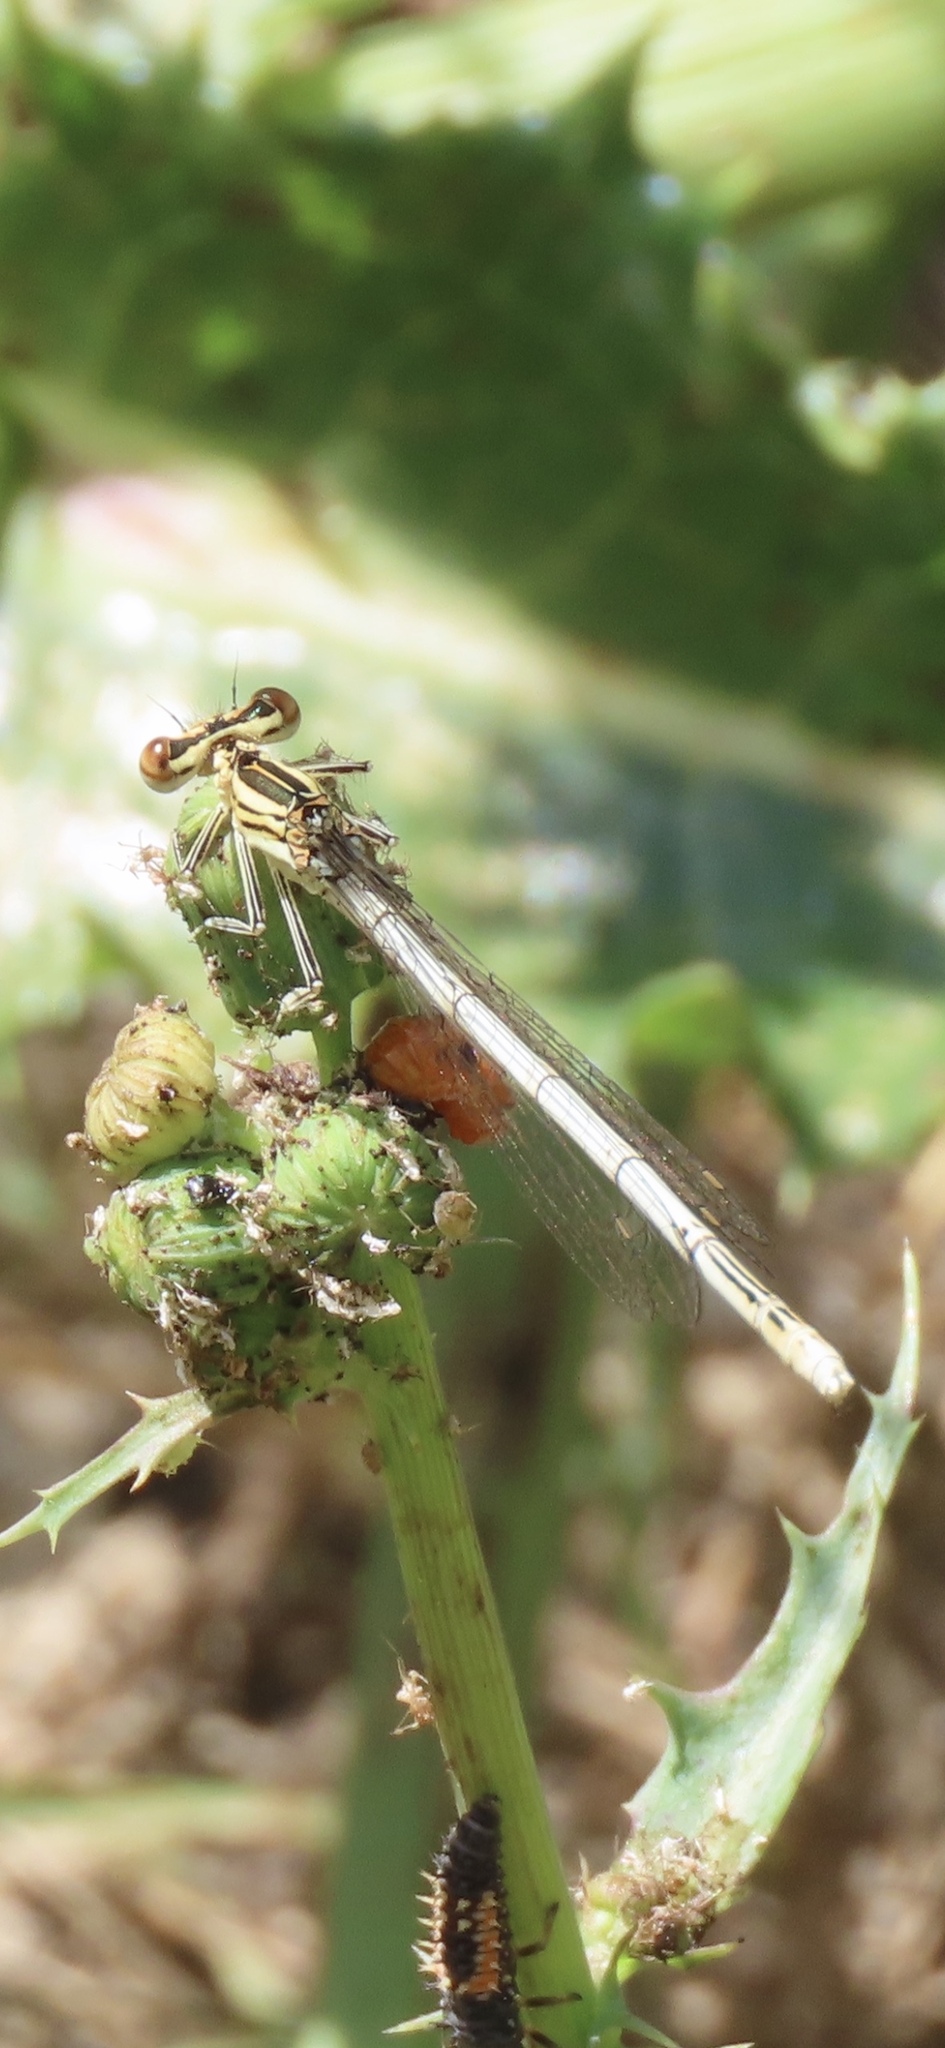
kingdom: Animalia
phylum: Arthropoda
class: Insecta
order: Odonata
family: Platycnemididae
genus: Platycnemis
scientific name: Platycnemis pennipes
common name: White-legged damselfly
